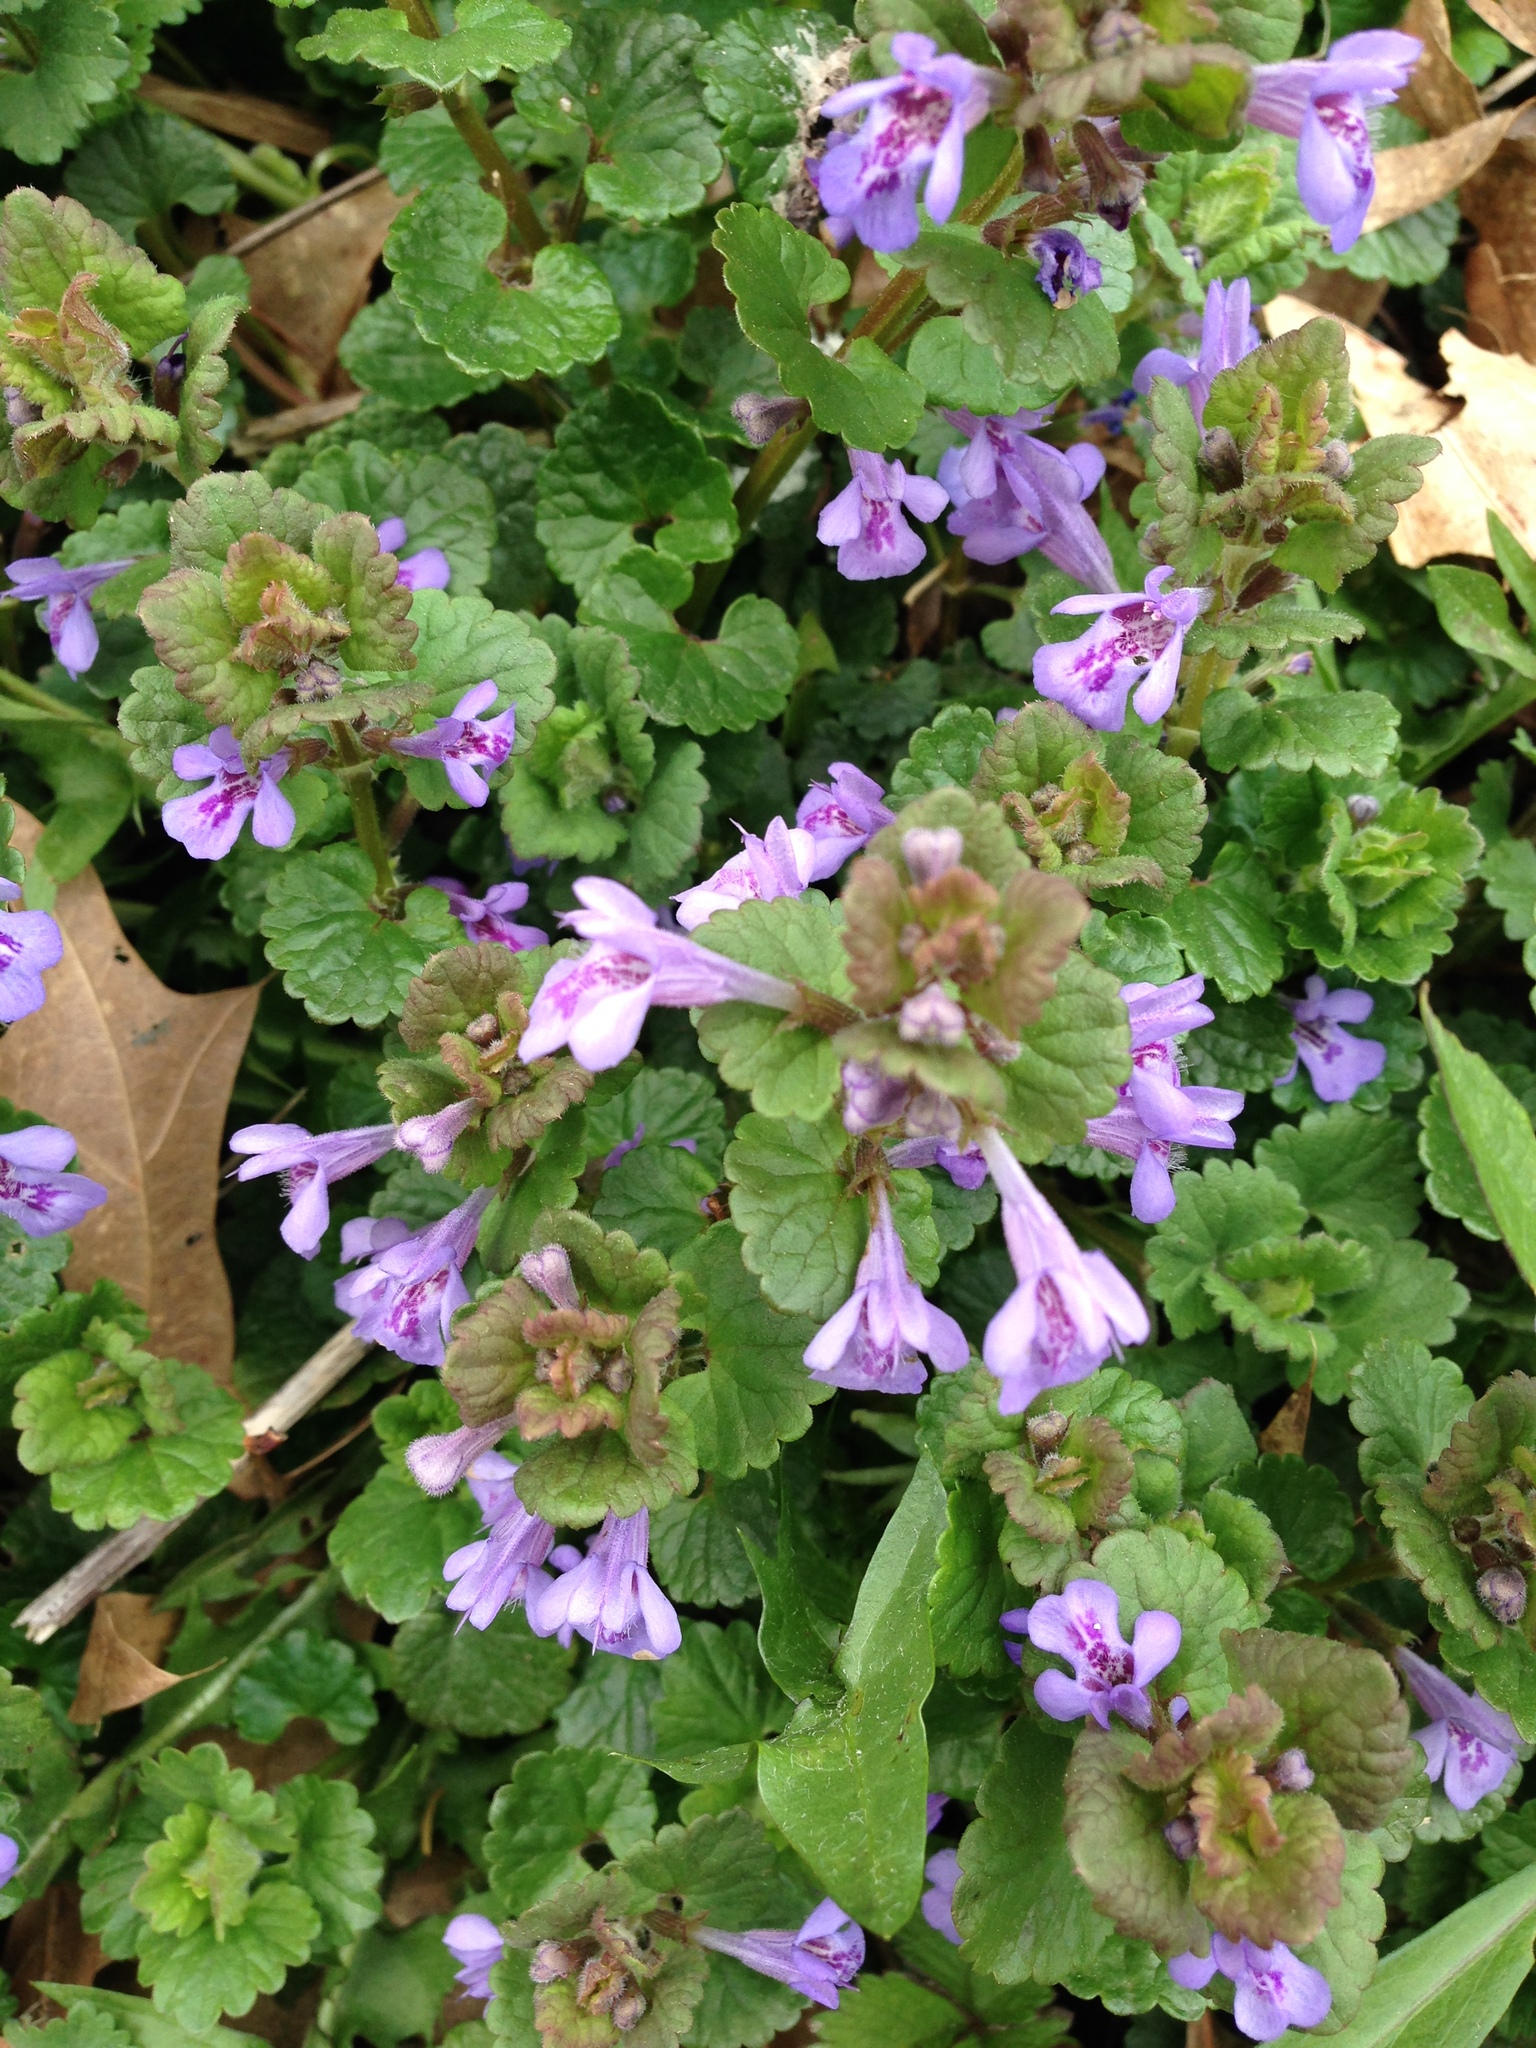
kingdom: Plantae
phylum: Tracheophyta
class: Magnoliopsida
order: Lamiales
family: Lamiaceae
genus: Glechoma
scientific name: Glechoma hederacea
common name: Ground ivy
